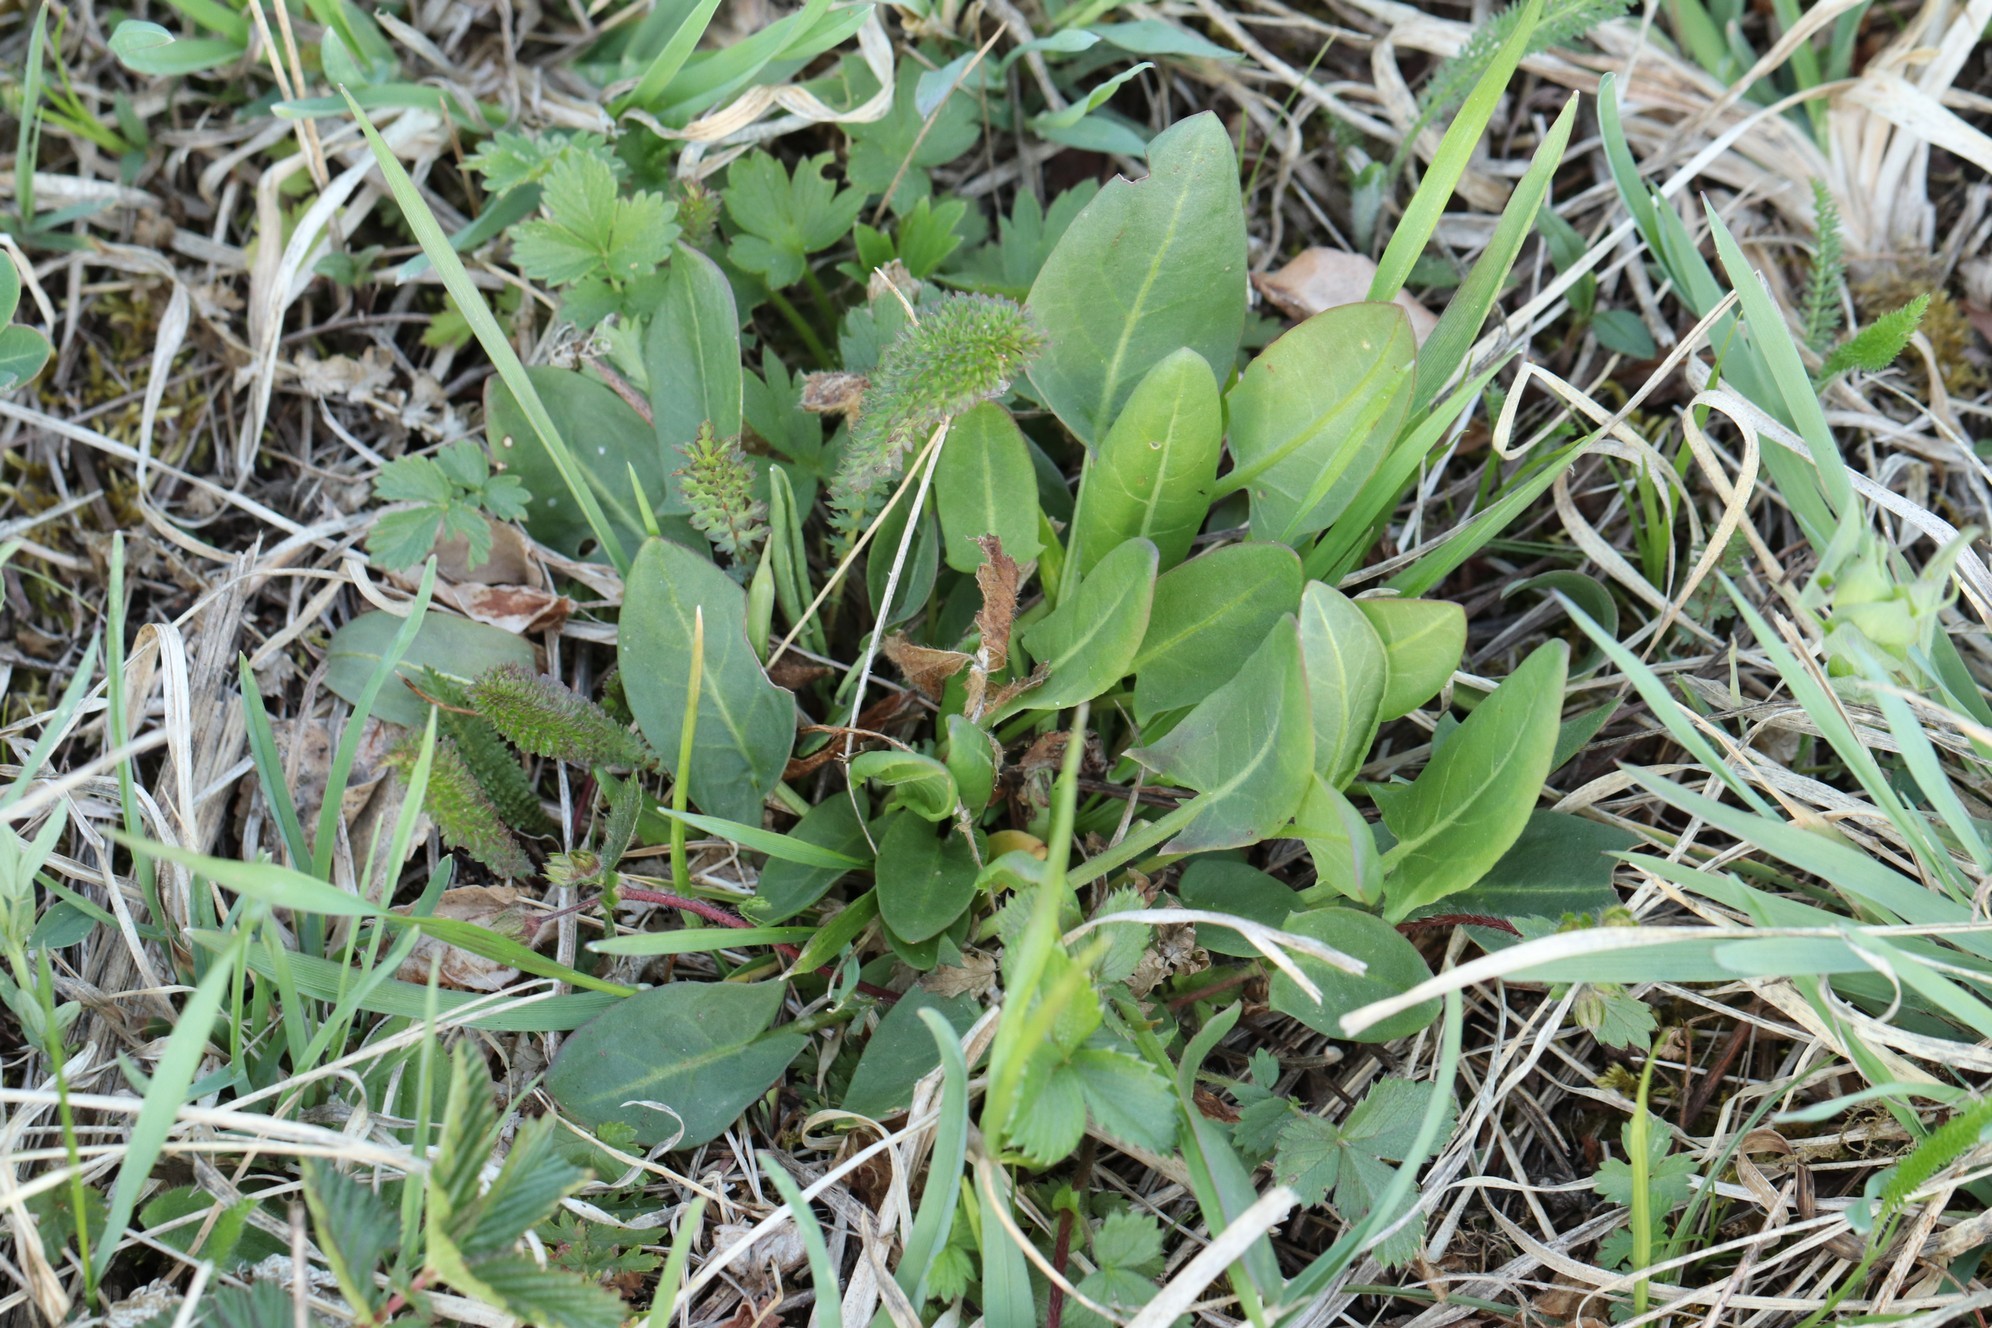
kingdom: Plantae
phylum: Tracheophyta
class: Magnoliopsida
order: Caryophyllales
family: Polygonaceae
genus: Rumex
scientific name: Rumex acetosa
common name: Garden sorrel
